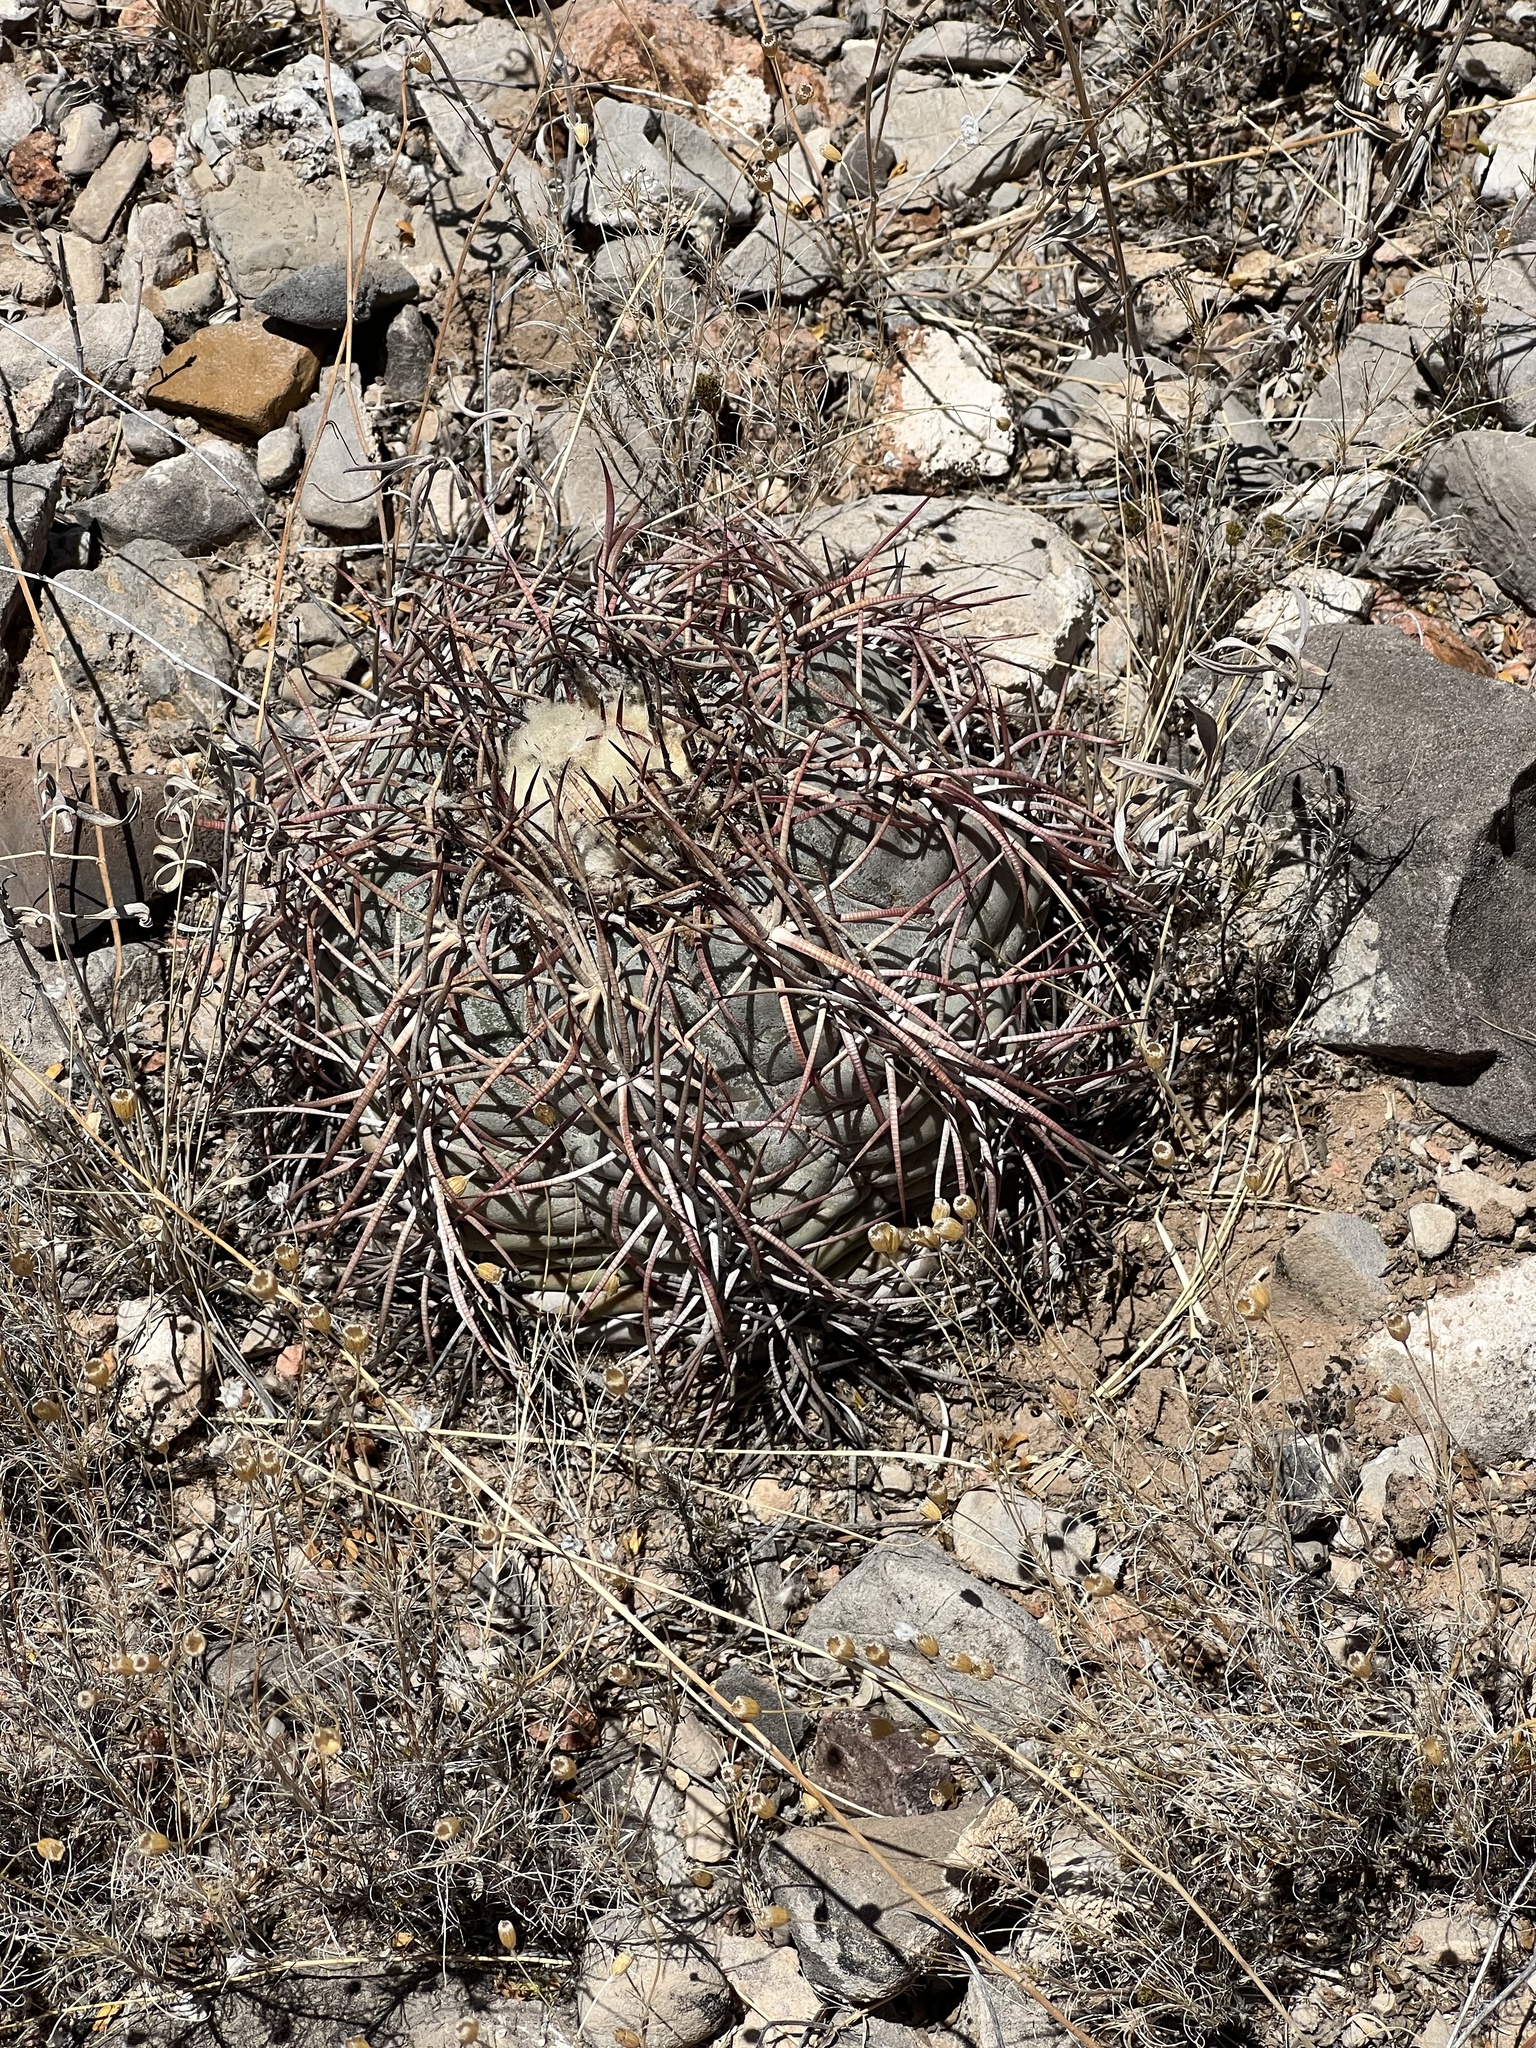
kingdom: Plantae
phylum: Tracheophyta
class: Magnoliopsida
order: Caryophyllales
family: Cactaceae
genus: Echinocactus
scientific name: Echinocactus horizonthalonius
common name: Devilshead
